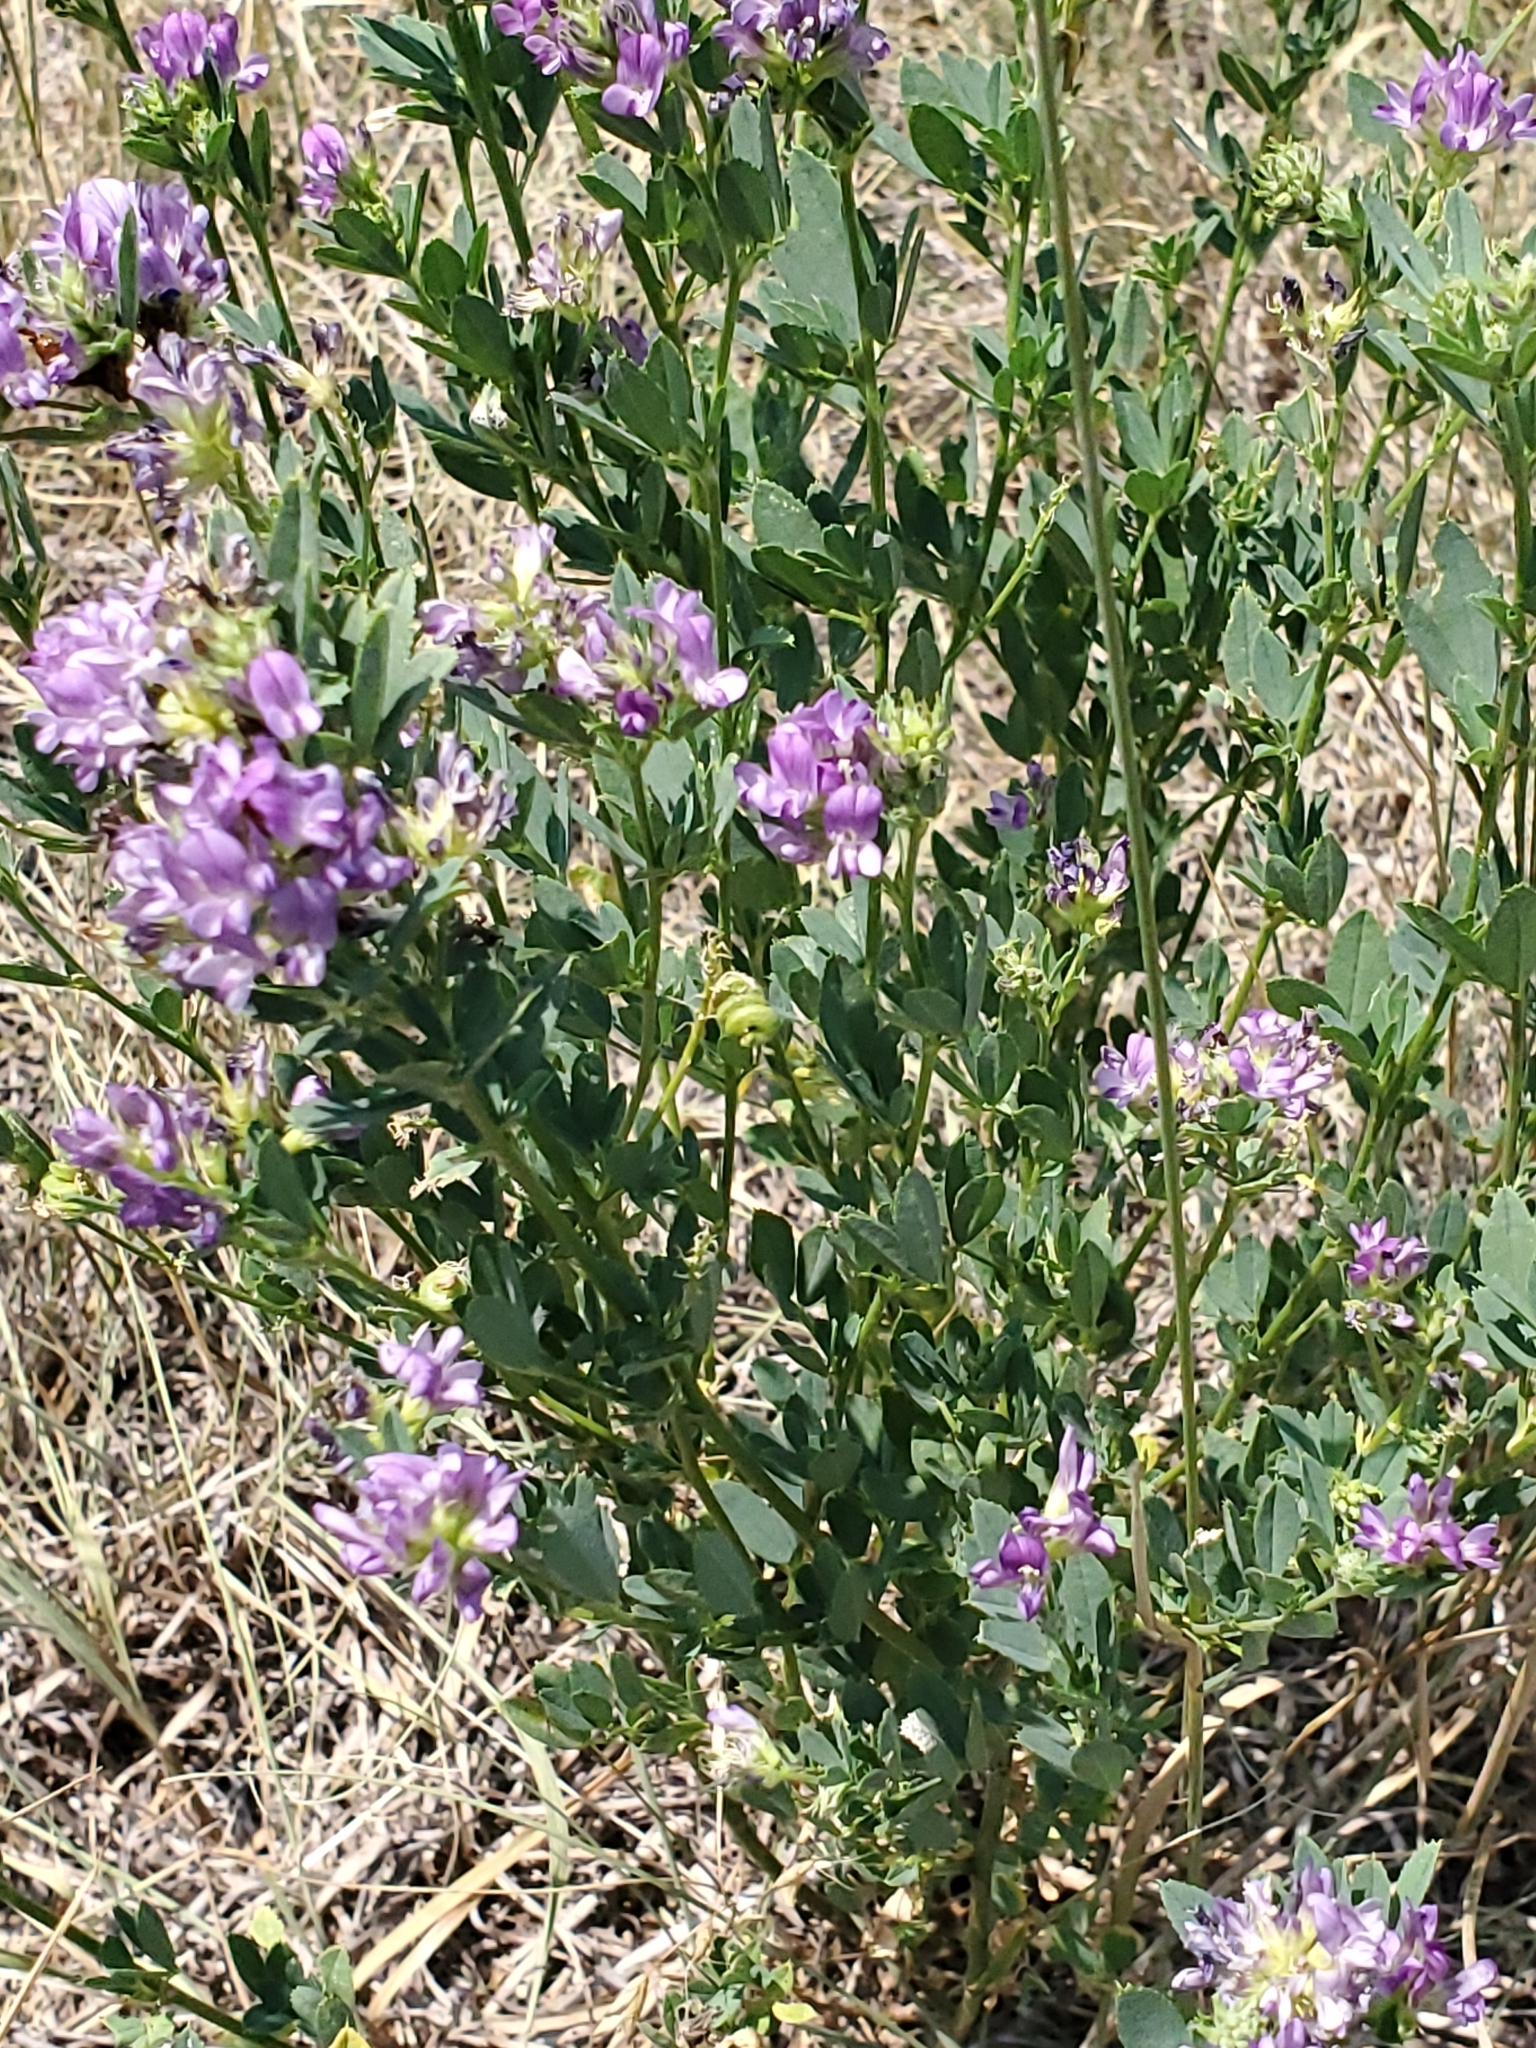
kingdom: Plantae
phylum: Tracheophyta
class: Magnoliopsida
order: Fabales
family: Fabaceae
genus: Medicago
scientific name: Medicago sativa
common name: Alfalfa
